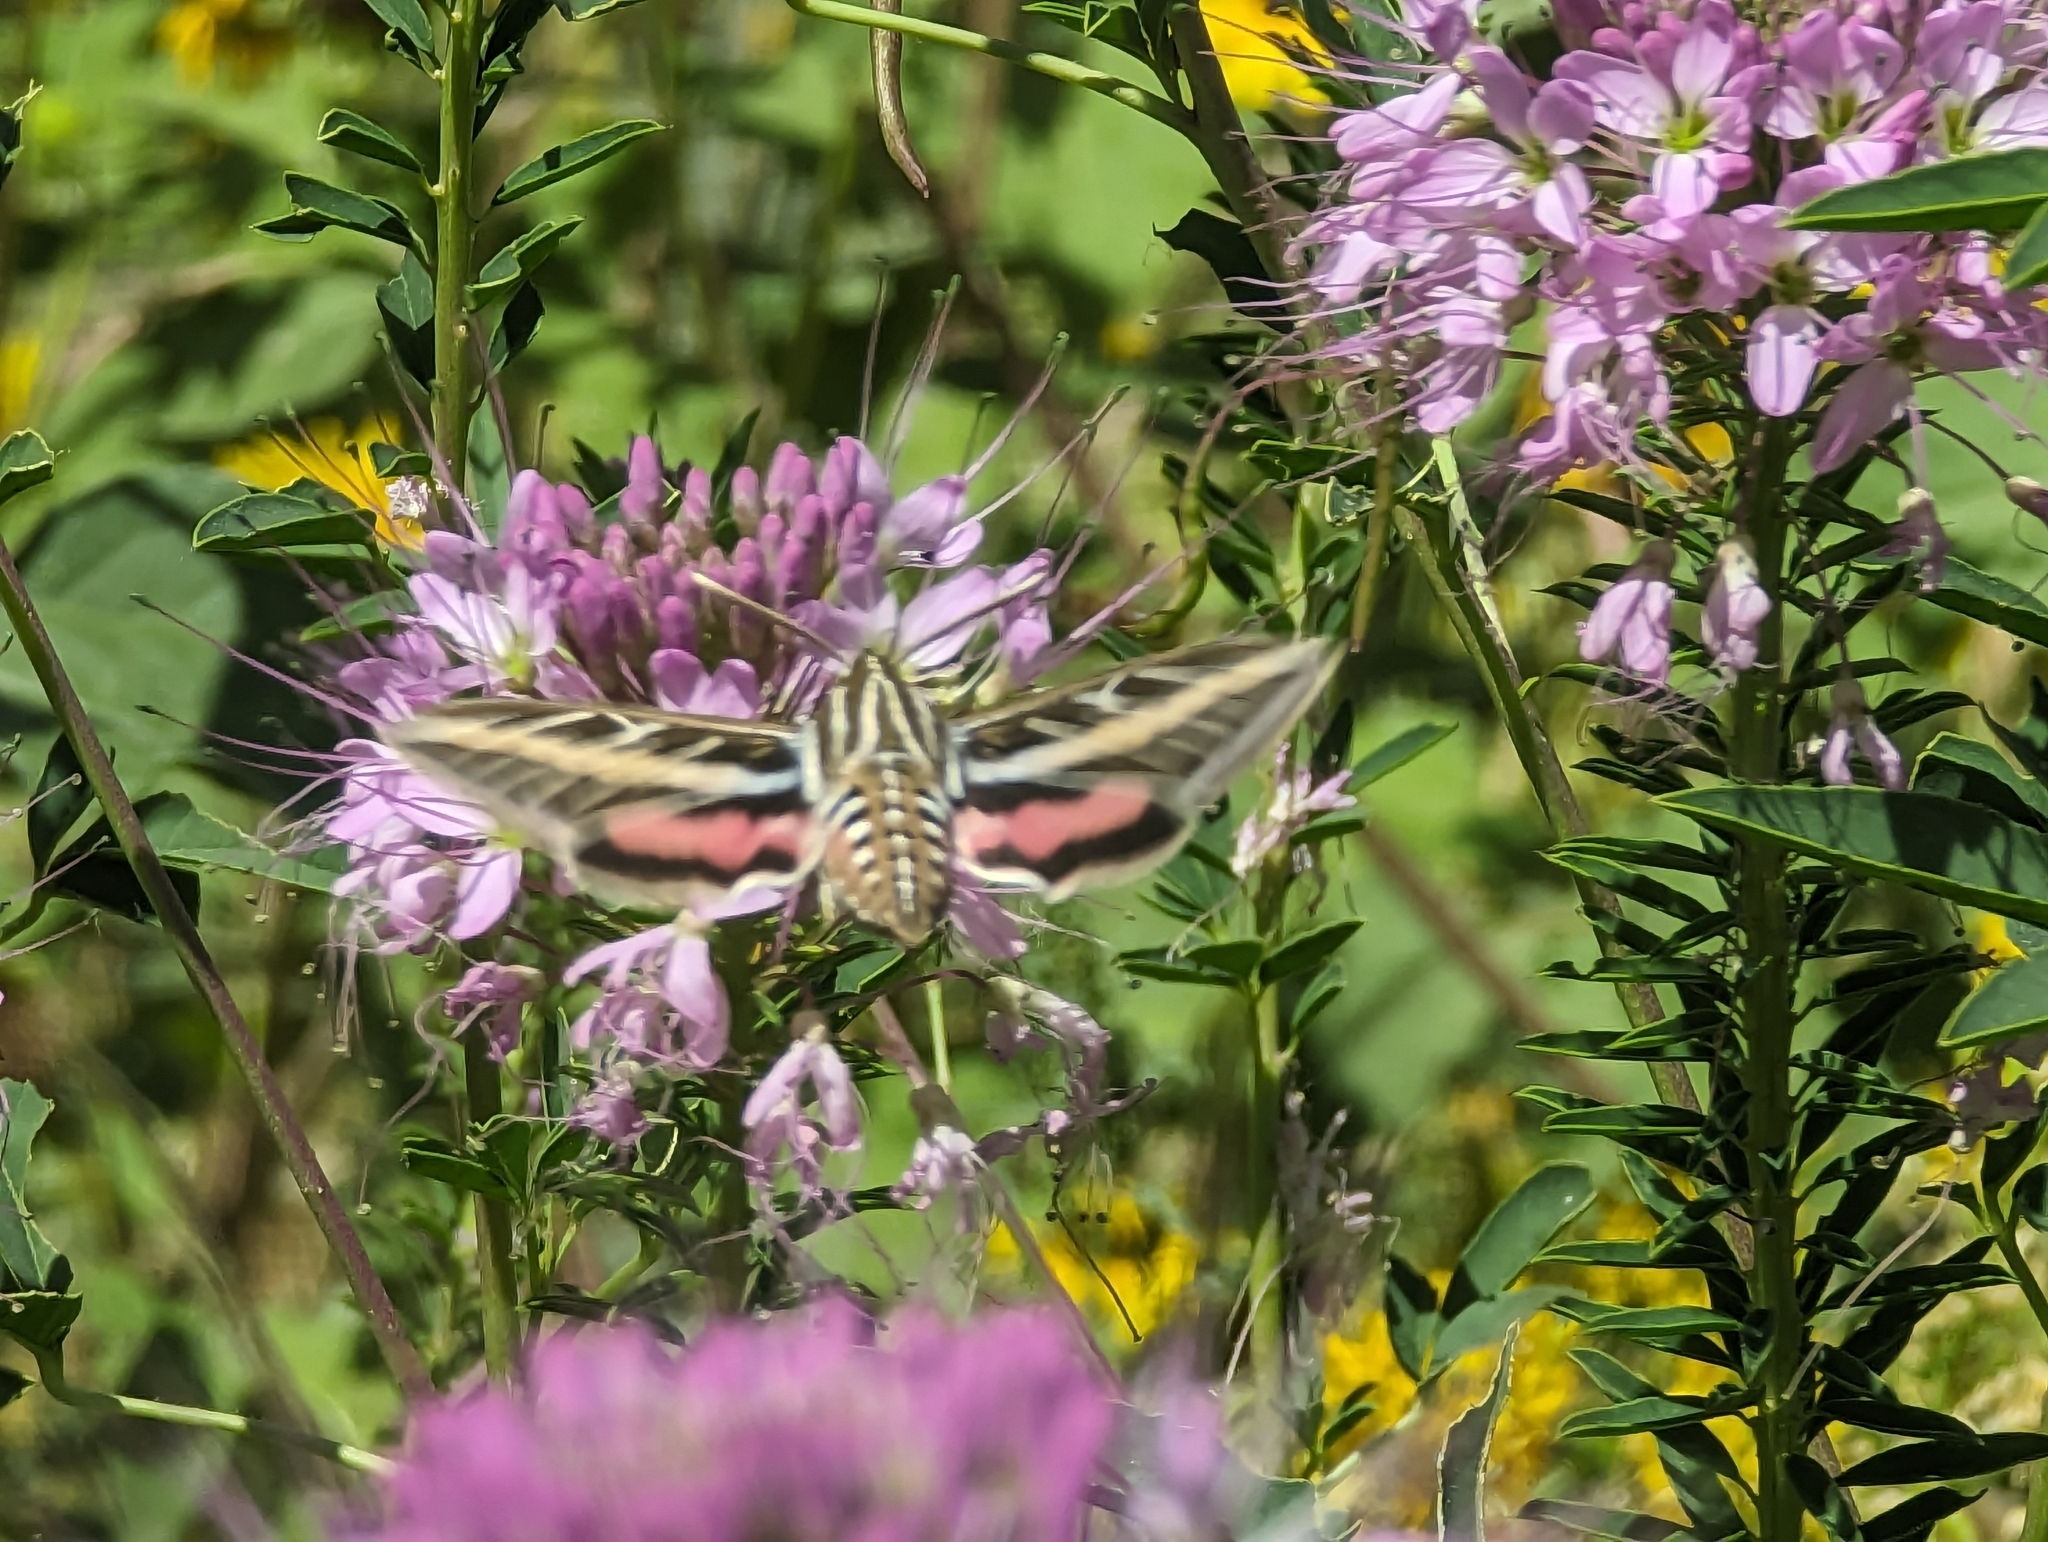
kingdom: Animalia
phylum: Arthropoda
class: Insecta
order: Lepidoptera
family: Sphingidae
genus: Hyles
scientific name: Hyles lineata
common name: White-lined sphinx
